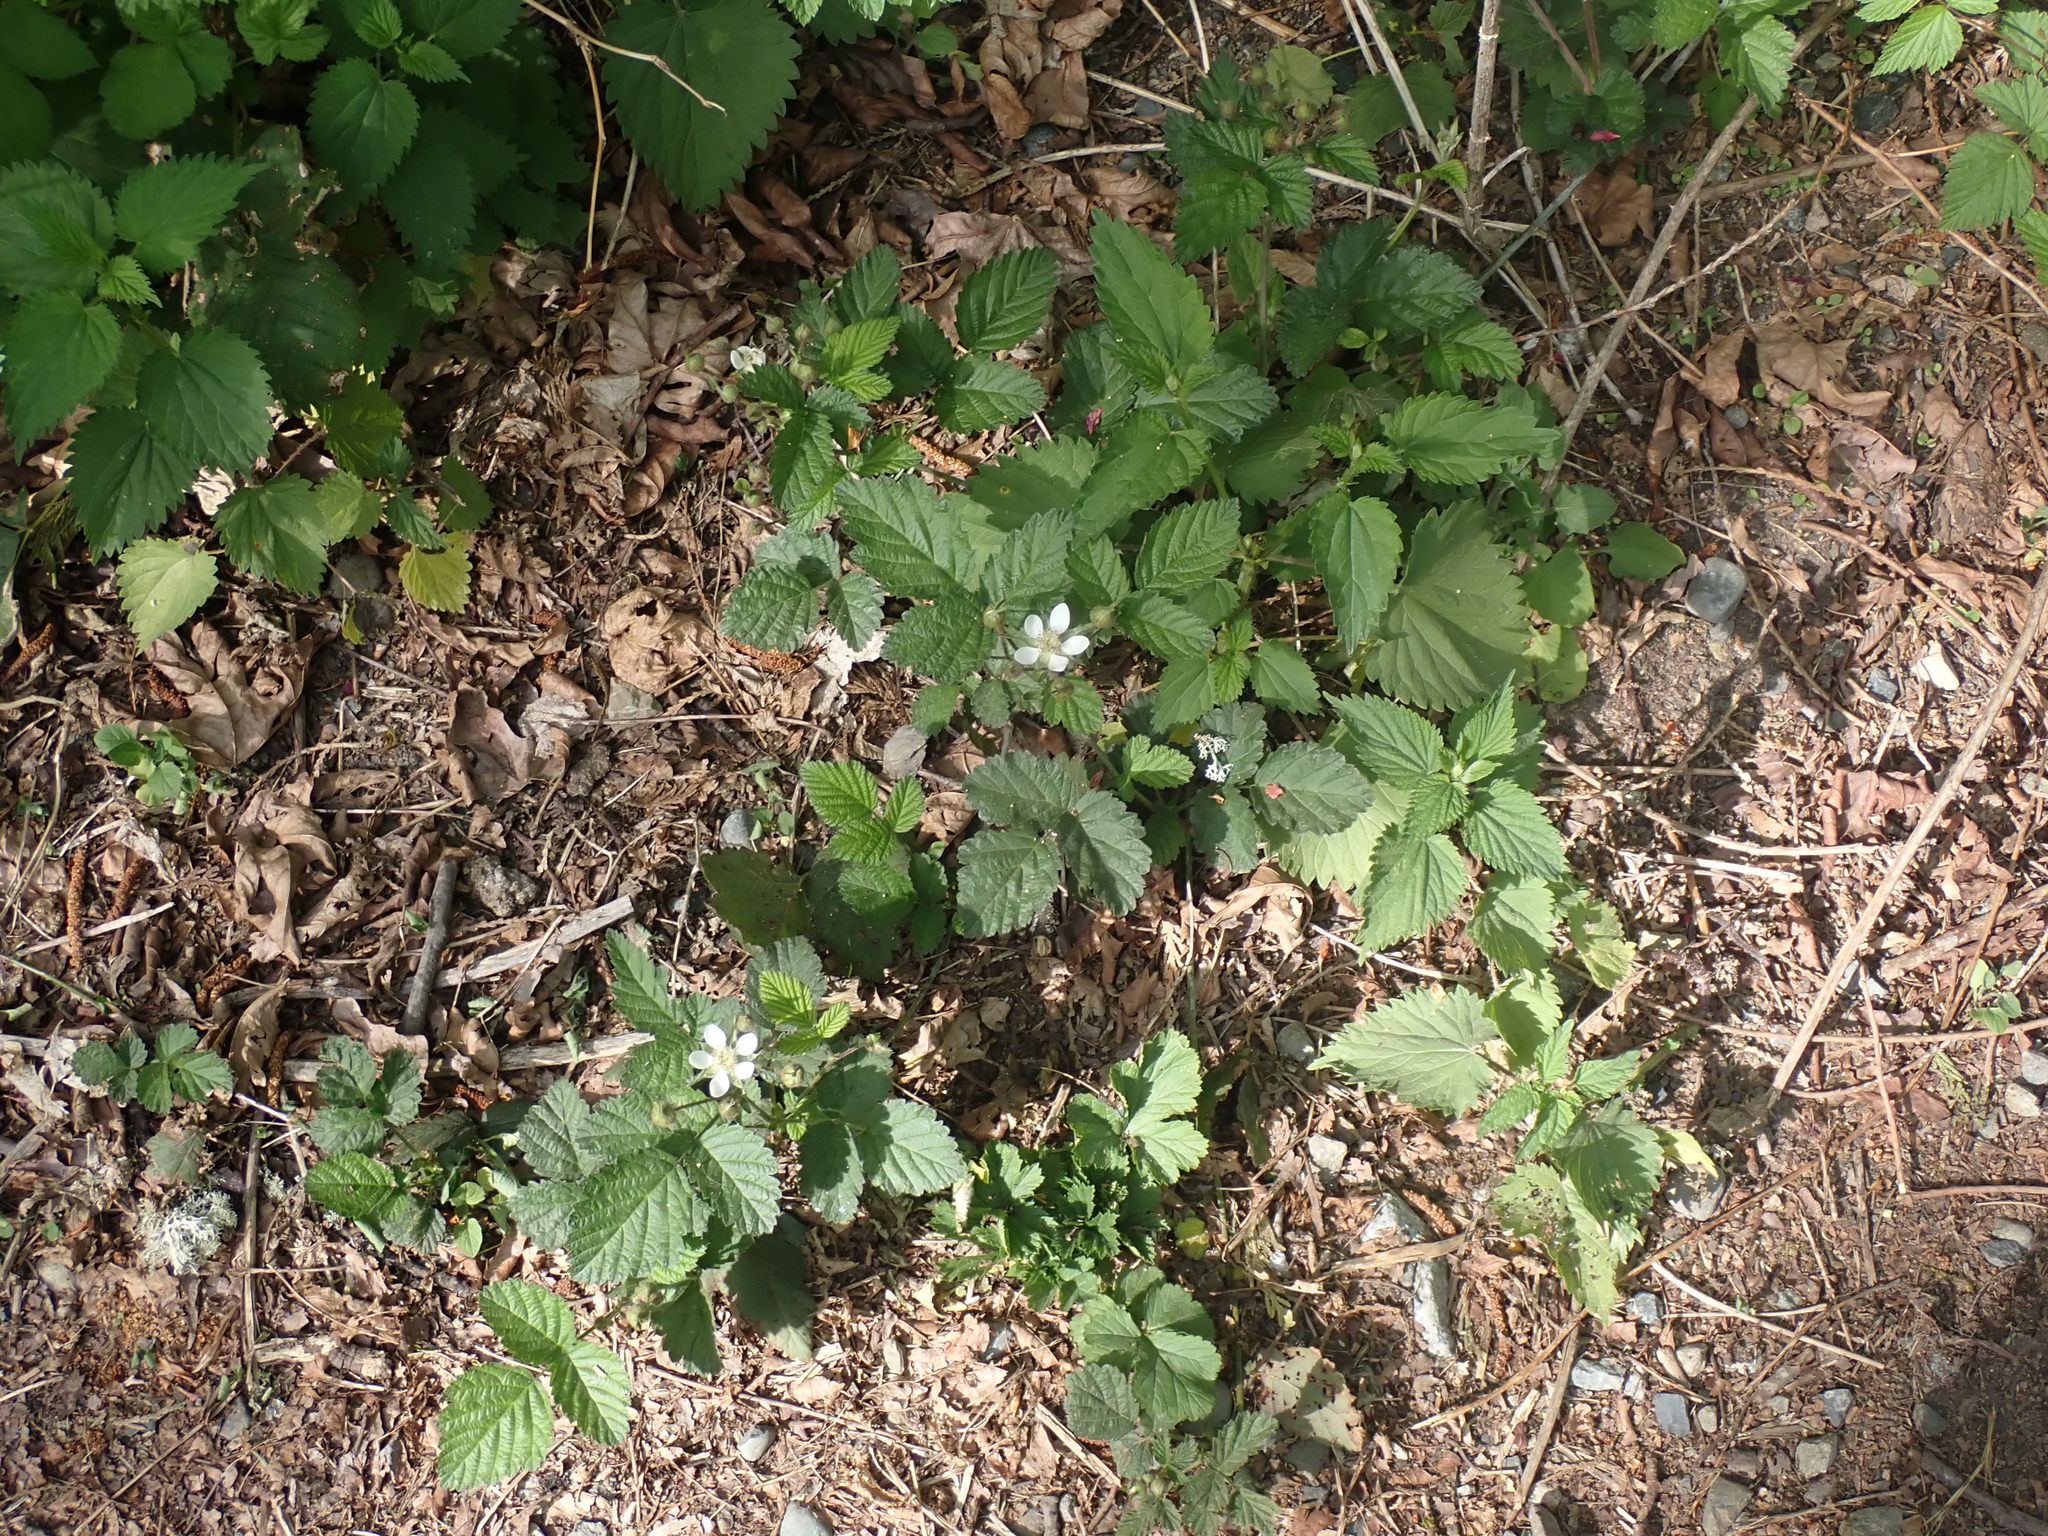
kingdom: Plantae
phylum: Tracheophyta
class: Magnoliopsida
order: Rosales
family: Rosaceae
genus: Rubus
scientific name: Rubus ursinus
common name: Pacific blackberry
